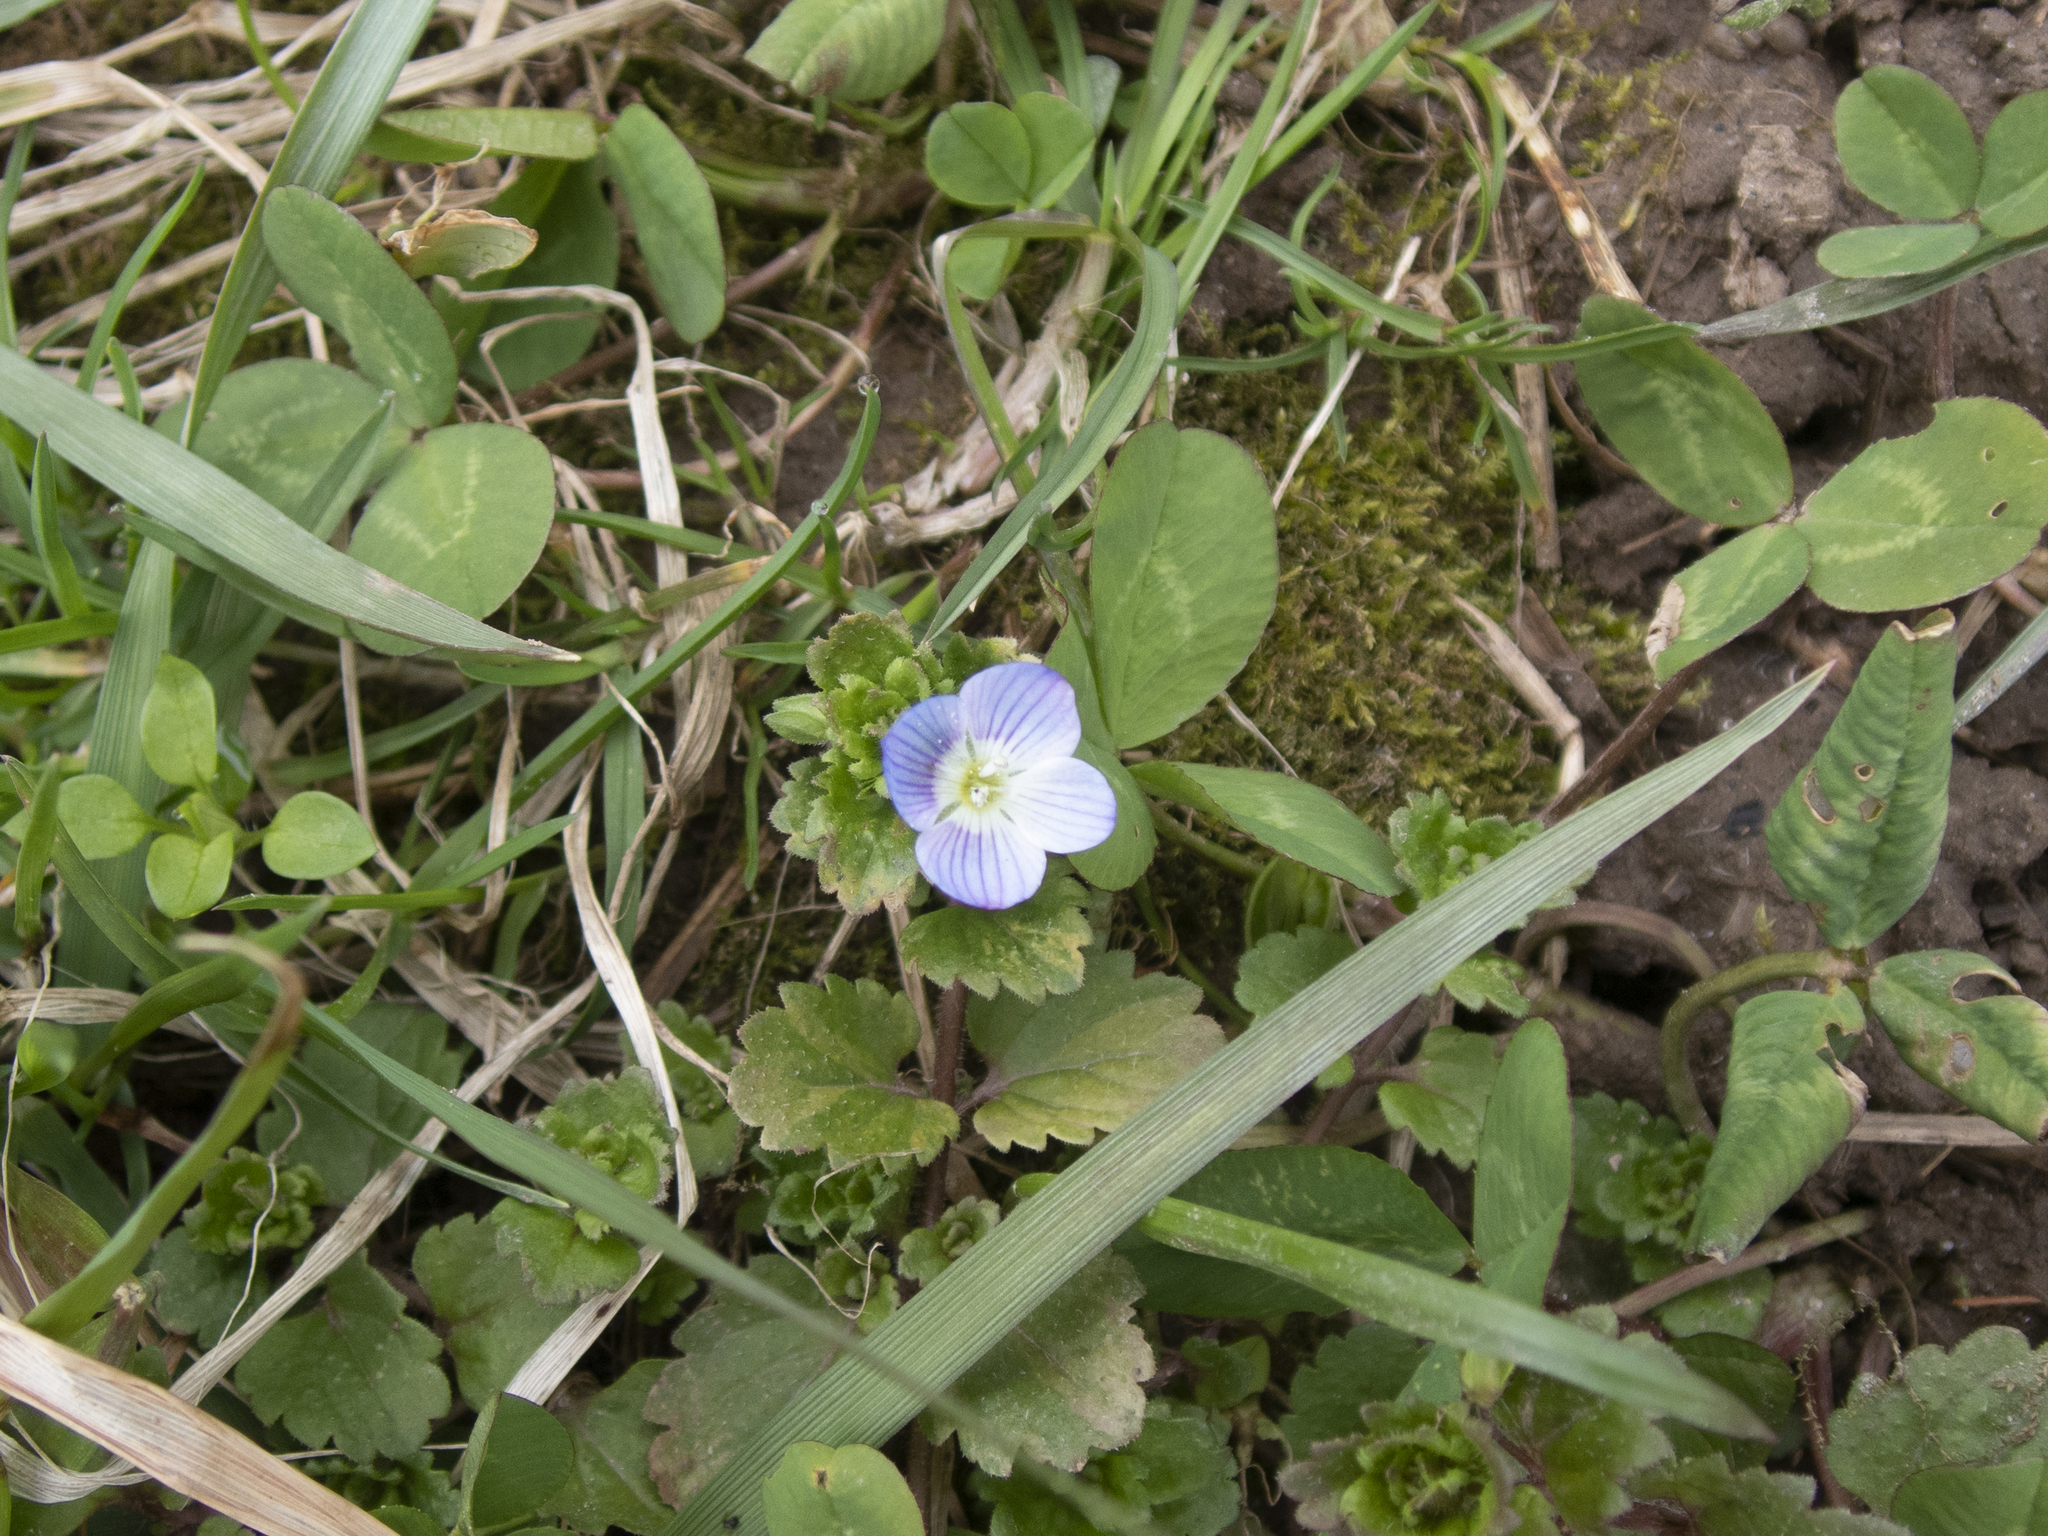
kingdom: Plantae
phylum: Tracheophyta
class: Magnoliopsida
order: Lamiales
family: Plantaginaceae
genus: Veronica
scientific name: Veronica persica
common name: Common field-speedwell
